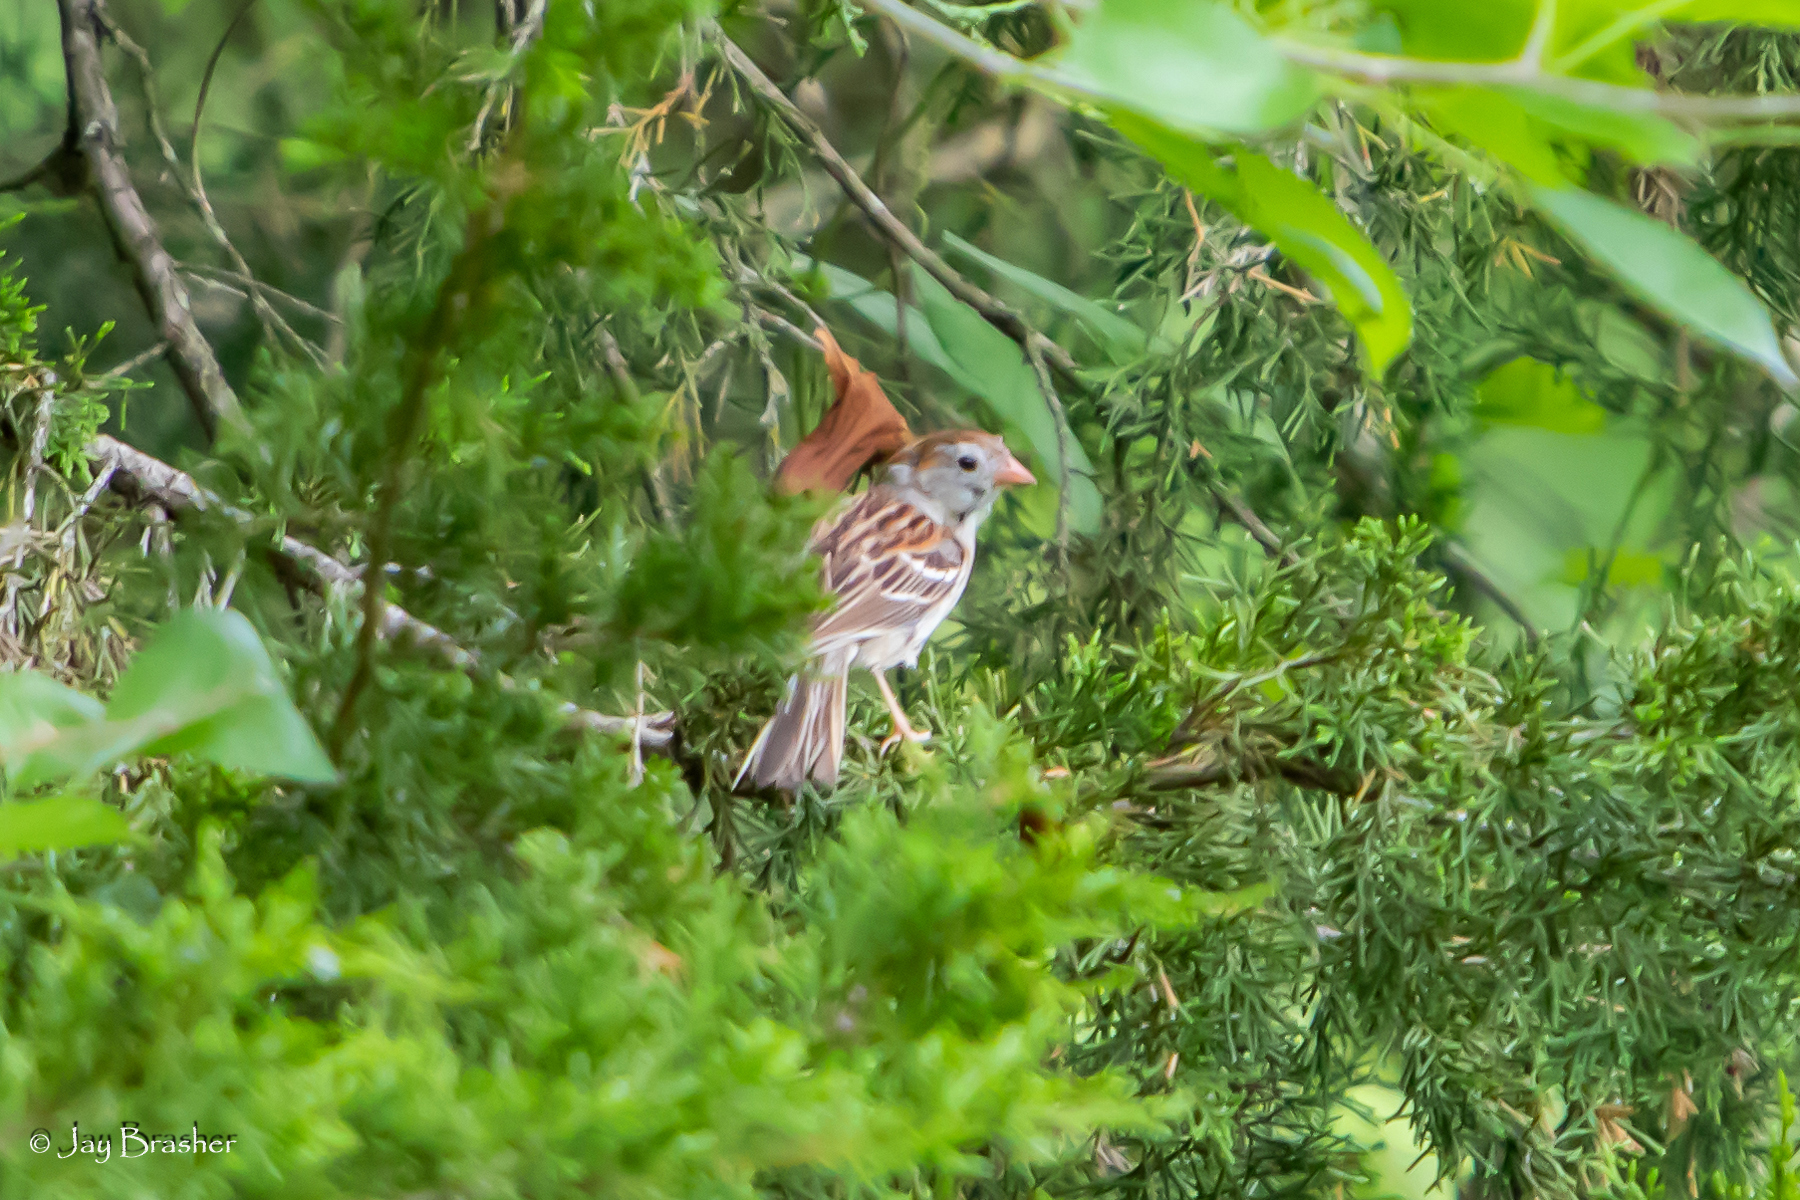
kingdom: Animalia
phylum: Chordata
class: Aves
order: Passeriformes
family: Passerellidae
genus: Spizella
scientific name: Spizella pusilla
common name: Field sparrow
